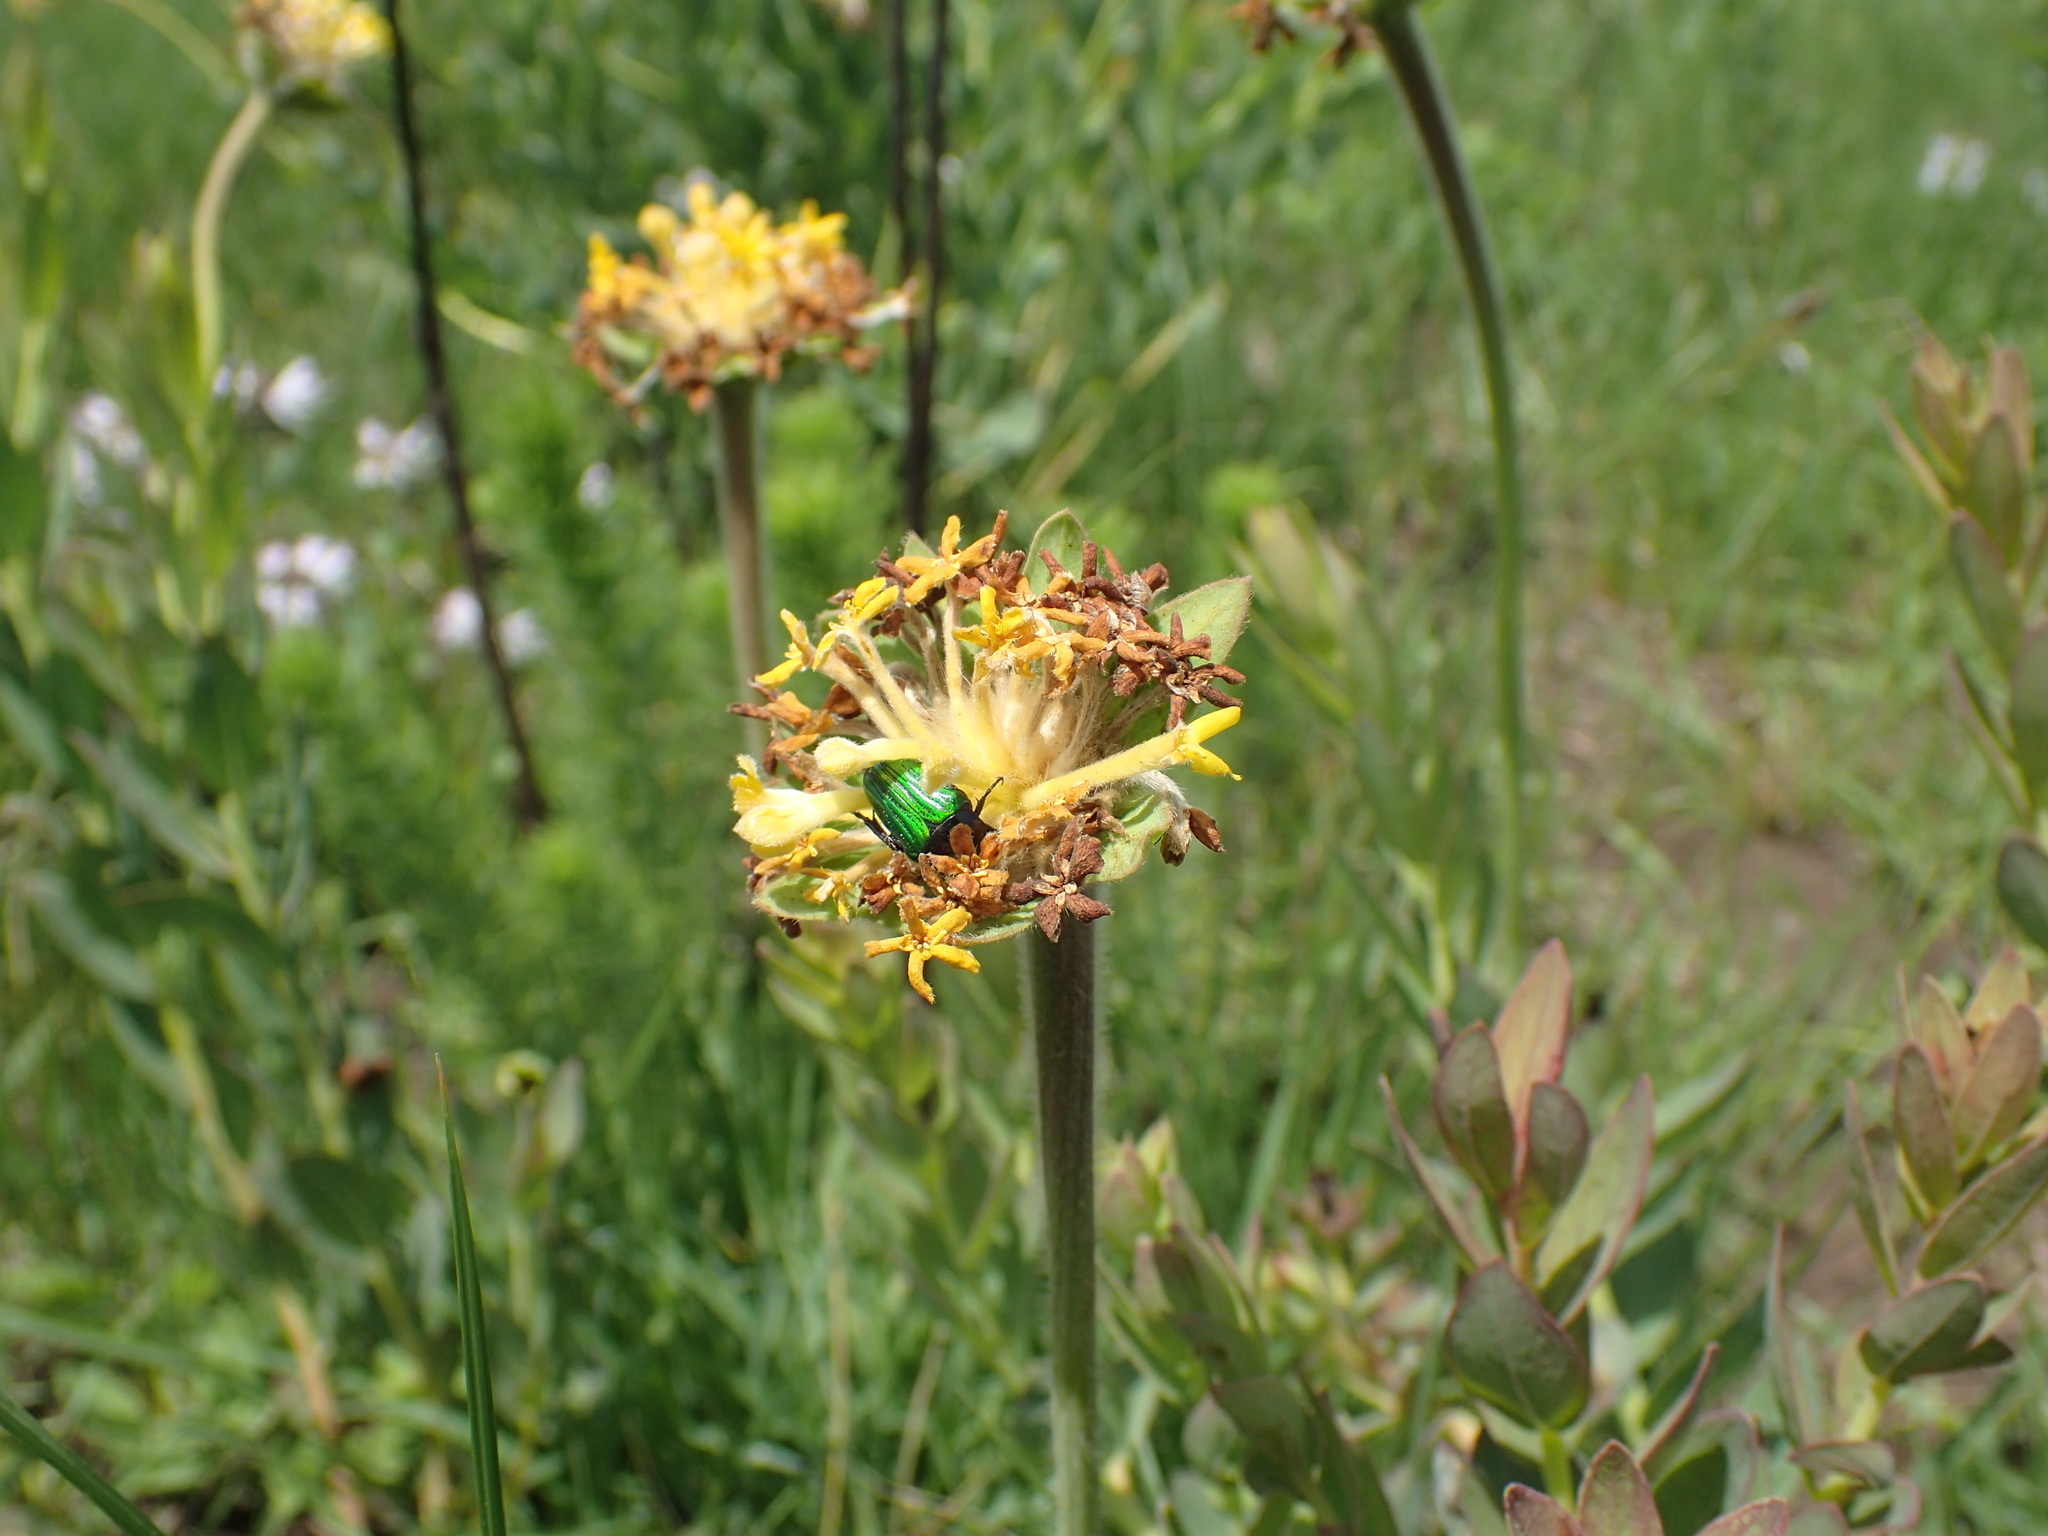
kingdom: Plantae
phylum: Tracheophyta
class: Magnoliopsida
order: Malvales
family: Thymelaeaceae
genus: Gnidia
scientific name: Gnidia kraussiana
